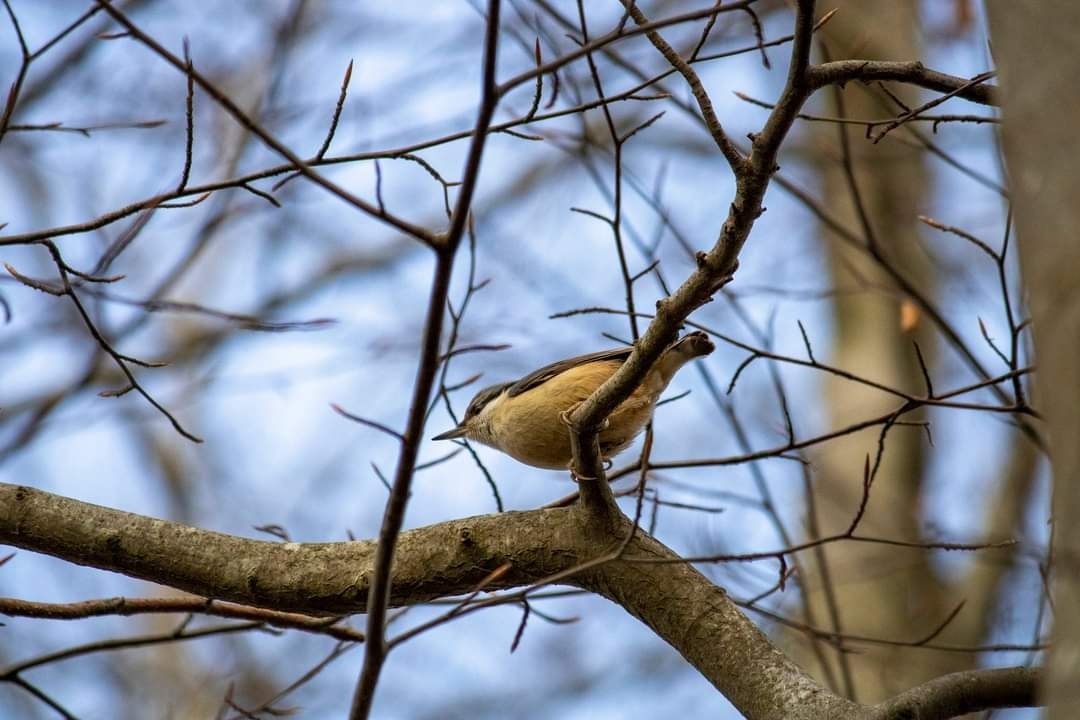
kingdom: Animalia
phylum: Chordata
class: Aves
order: Passeriformes
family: Sittidae
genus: Sitta
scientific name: Sitta europaea
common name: Eurasian nuthatch
